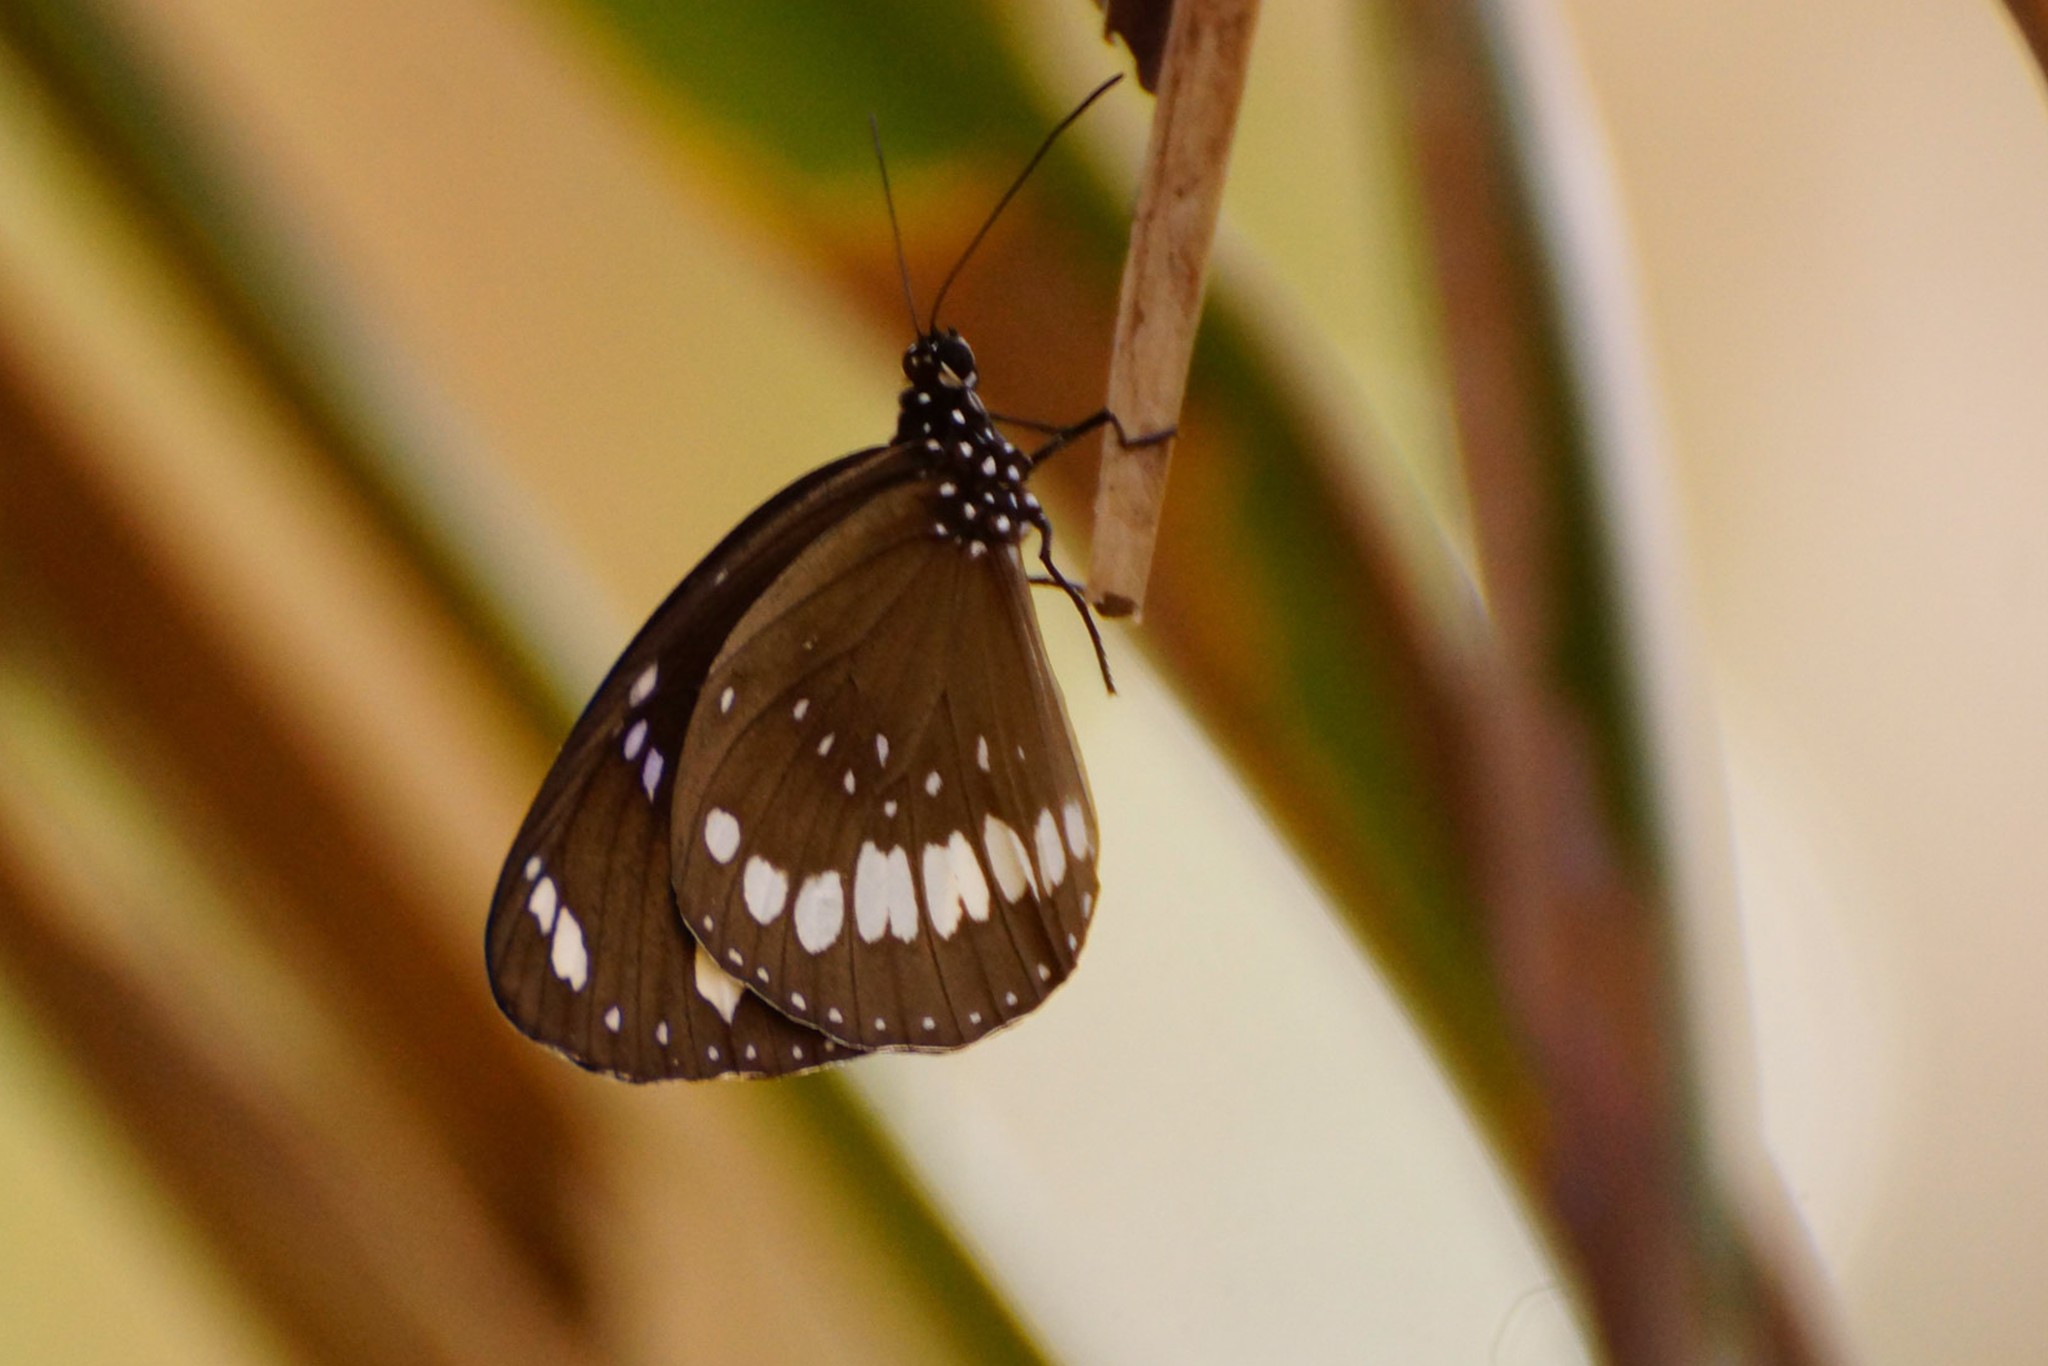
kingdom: Animalia
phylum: Arthropoda
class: Insecta
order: Lepidoptera
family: Nymphalidae
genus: Euploea
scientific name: Euploea core
